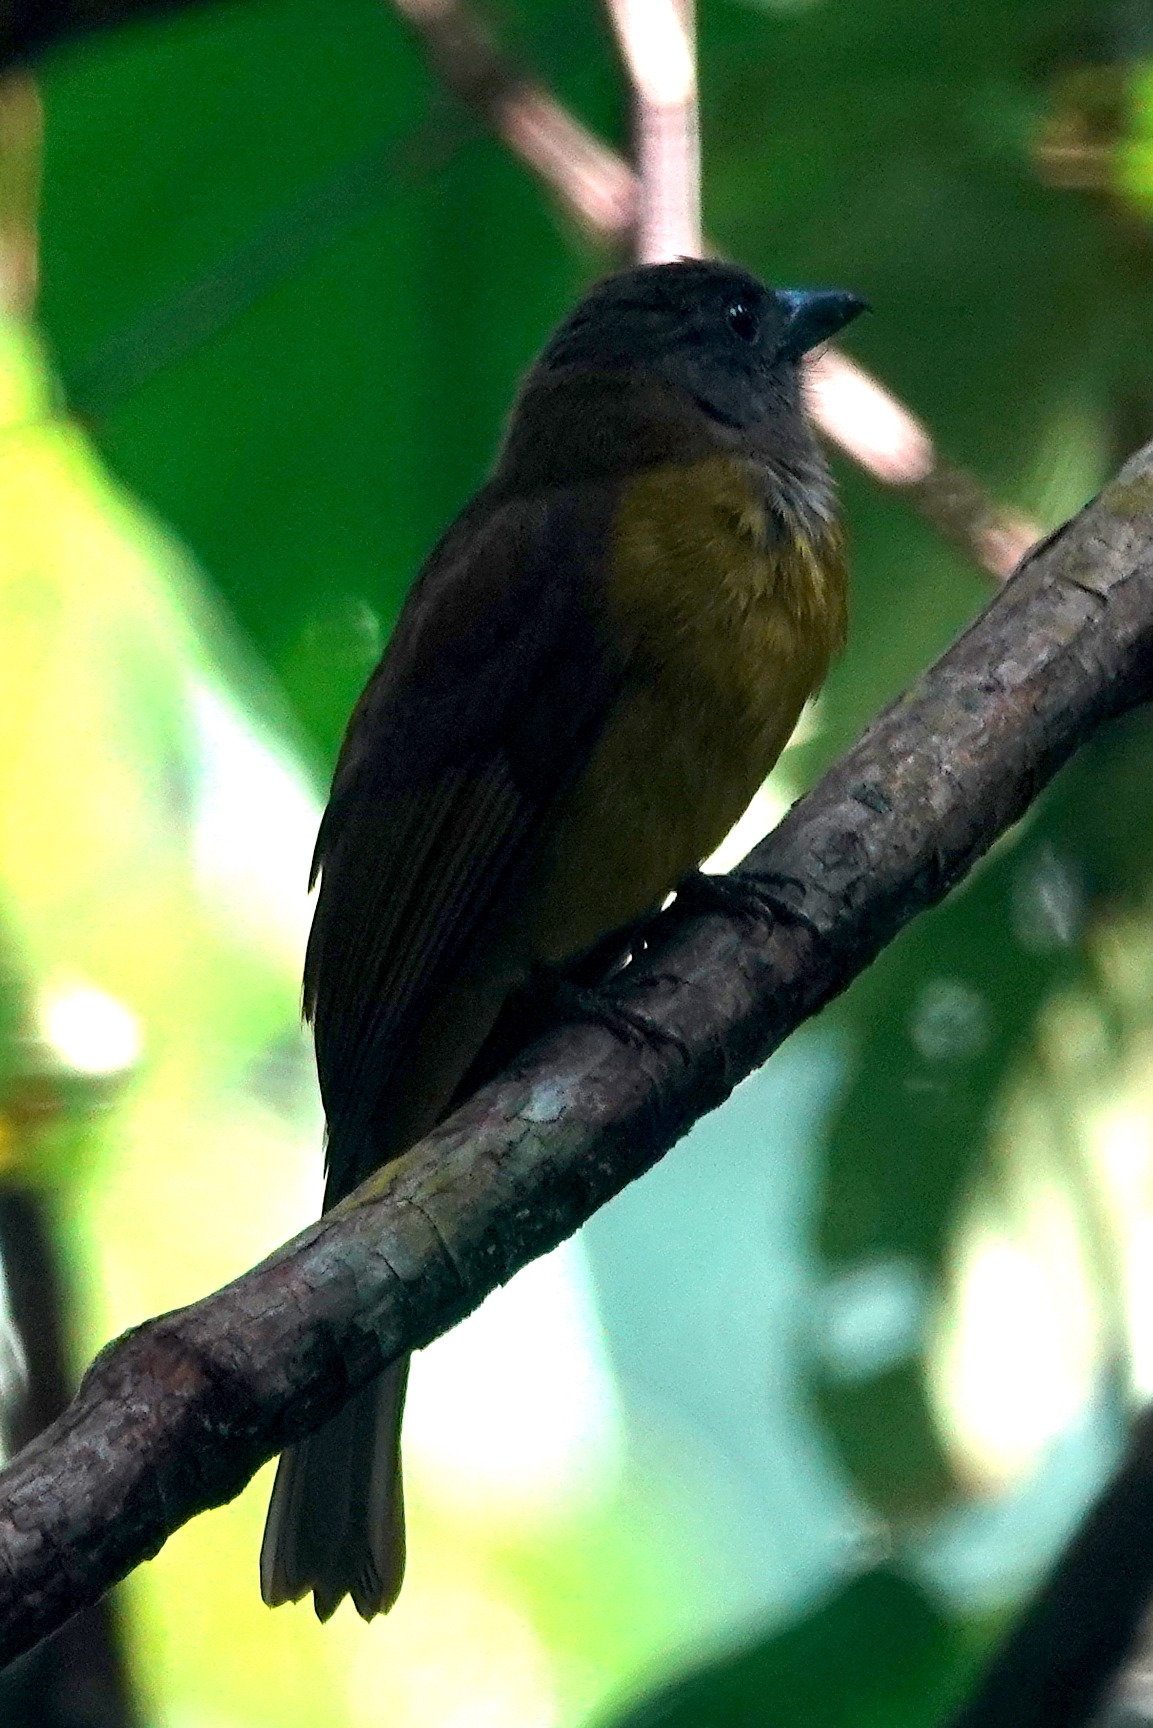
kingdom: Animalia
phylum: Chordata
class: Aves
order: Passeriformes
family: Thraupidae
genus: Lanio
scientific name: Lanio aurantius
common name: Black-throated shrike-tanager
